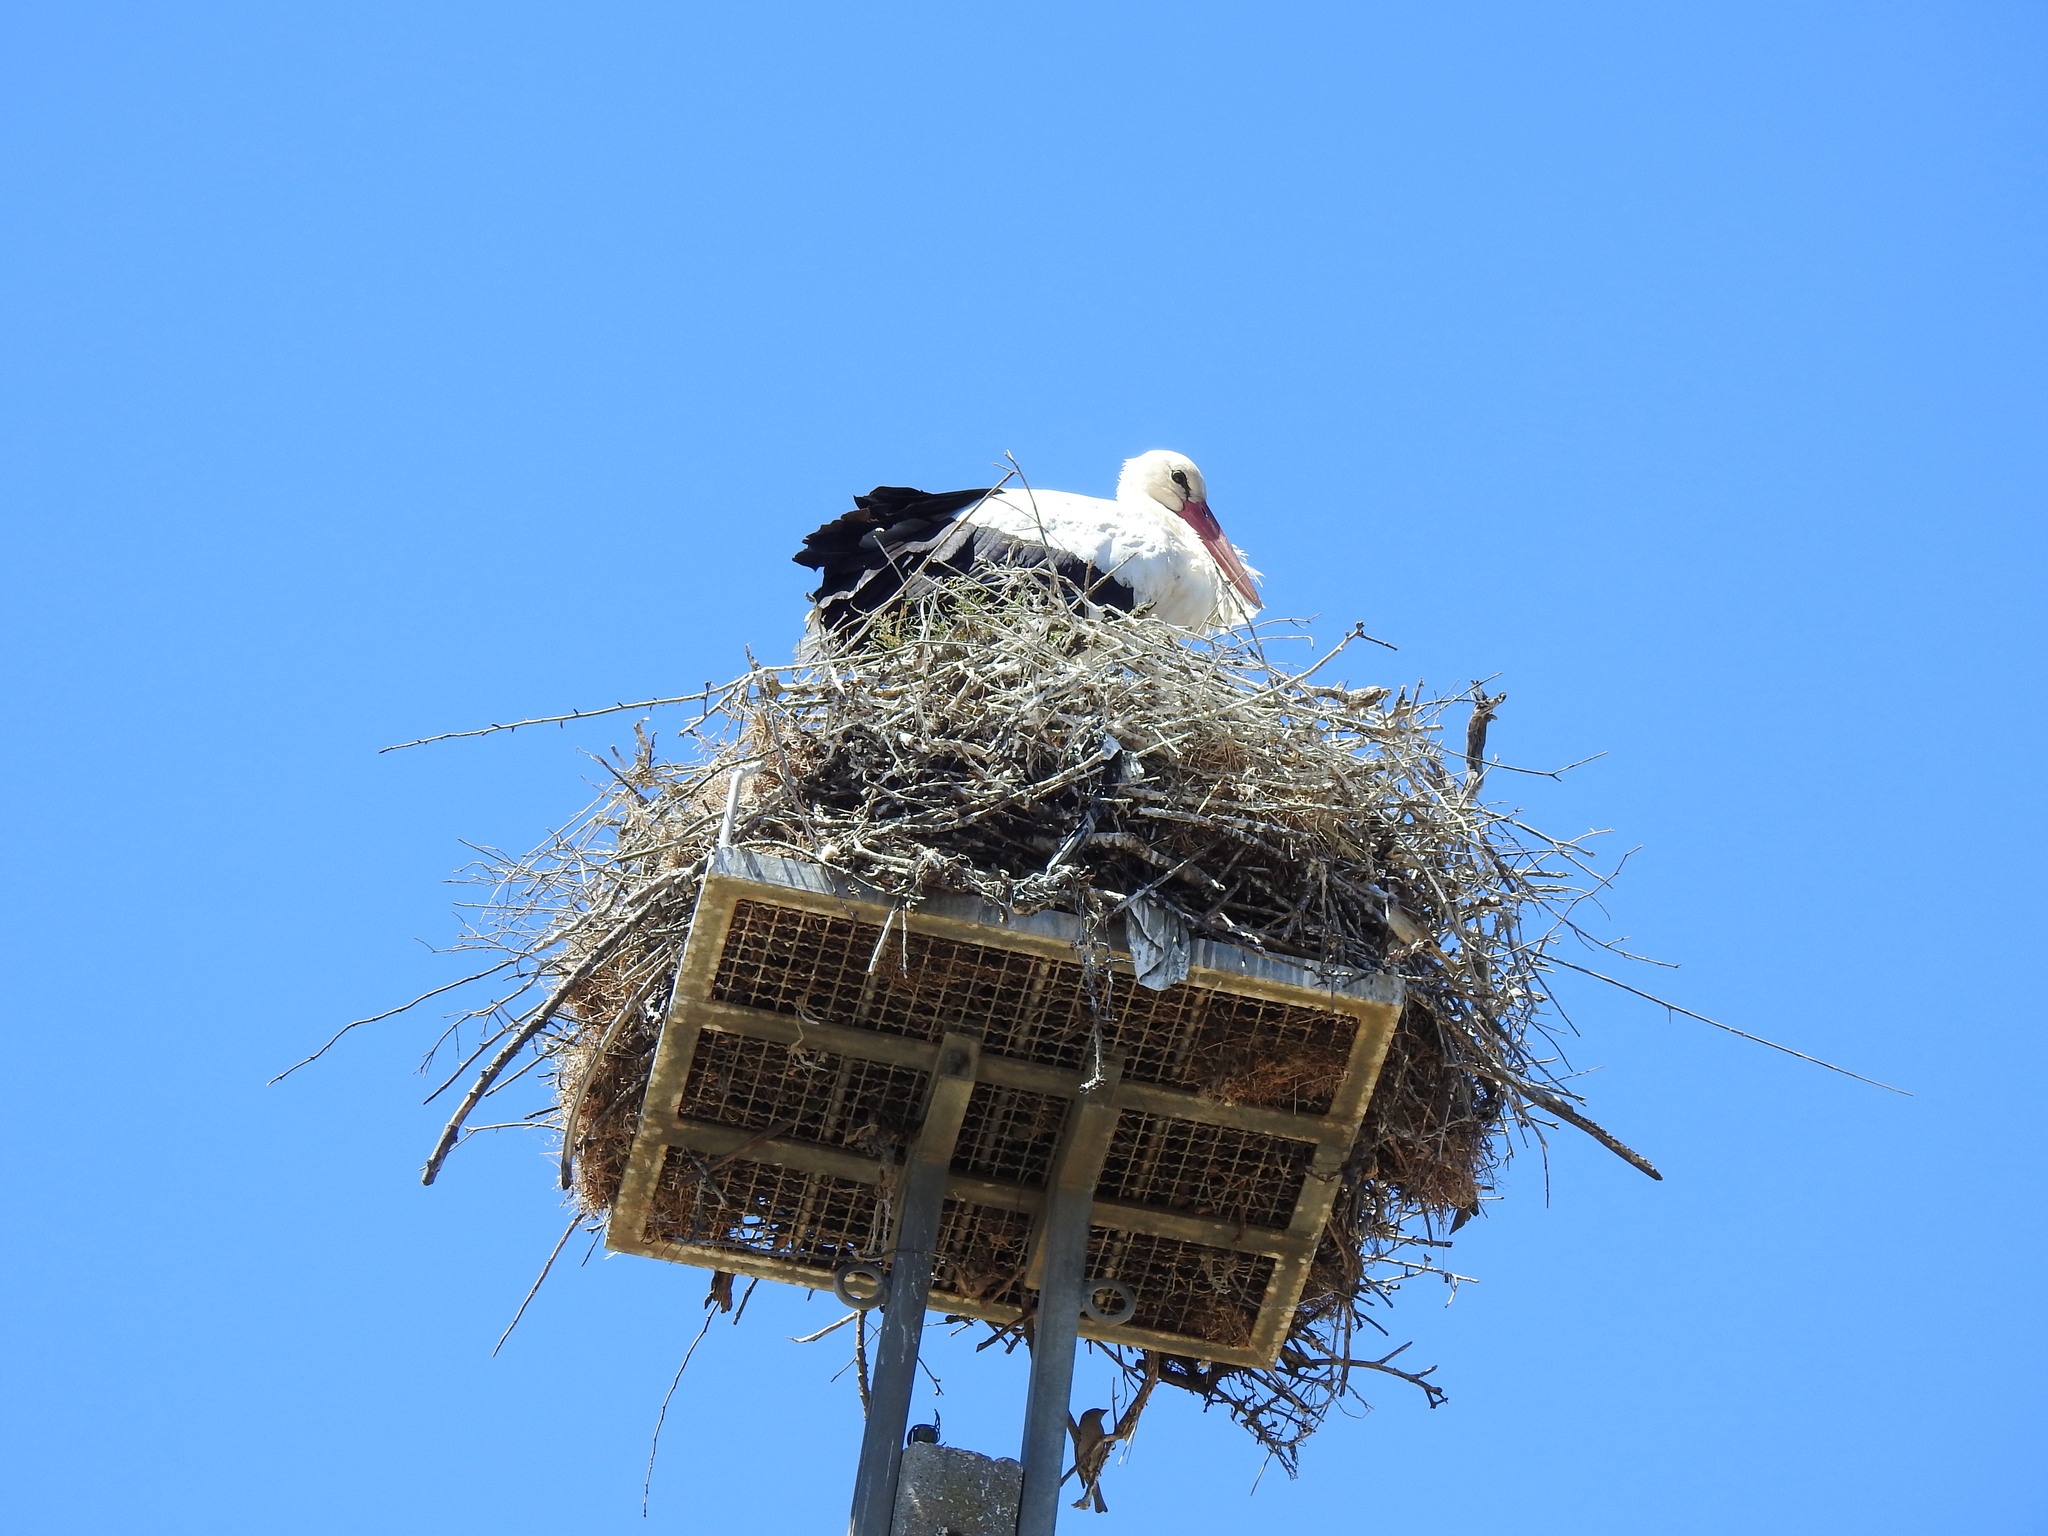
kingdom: Animalia
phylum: Chordata
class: Aves
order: Ciconiiformes
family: Ciconiidae
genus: Ciconia
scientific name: Ciconia ciconia
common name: White stork
